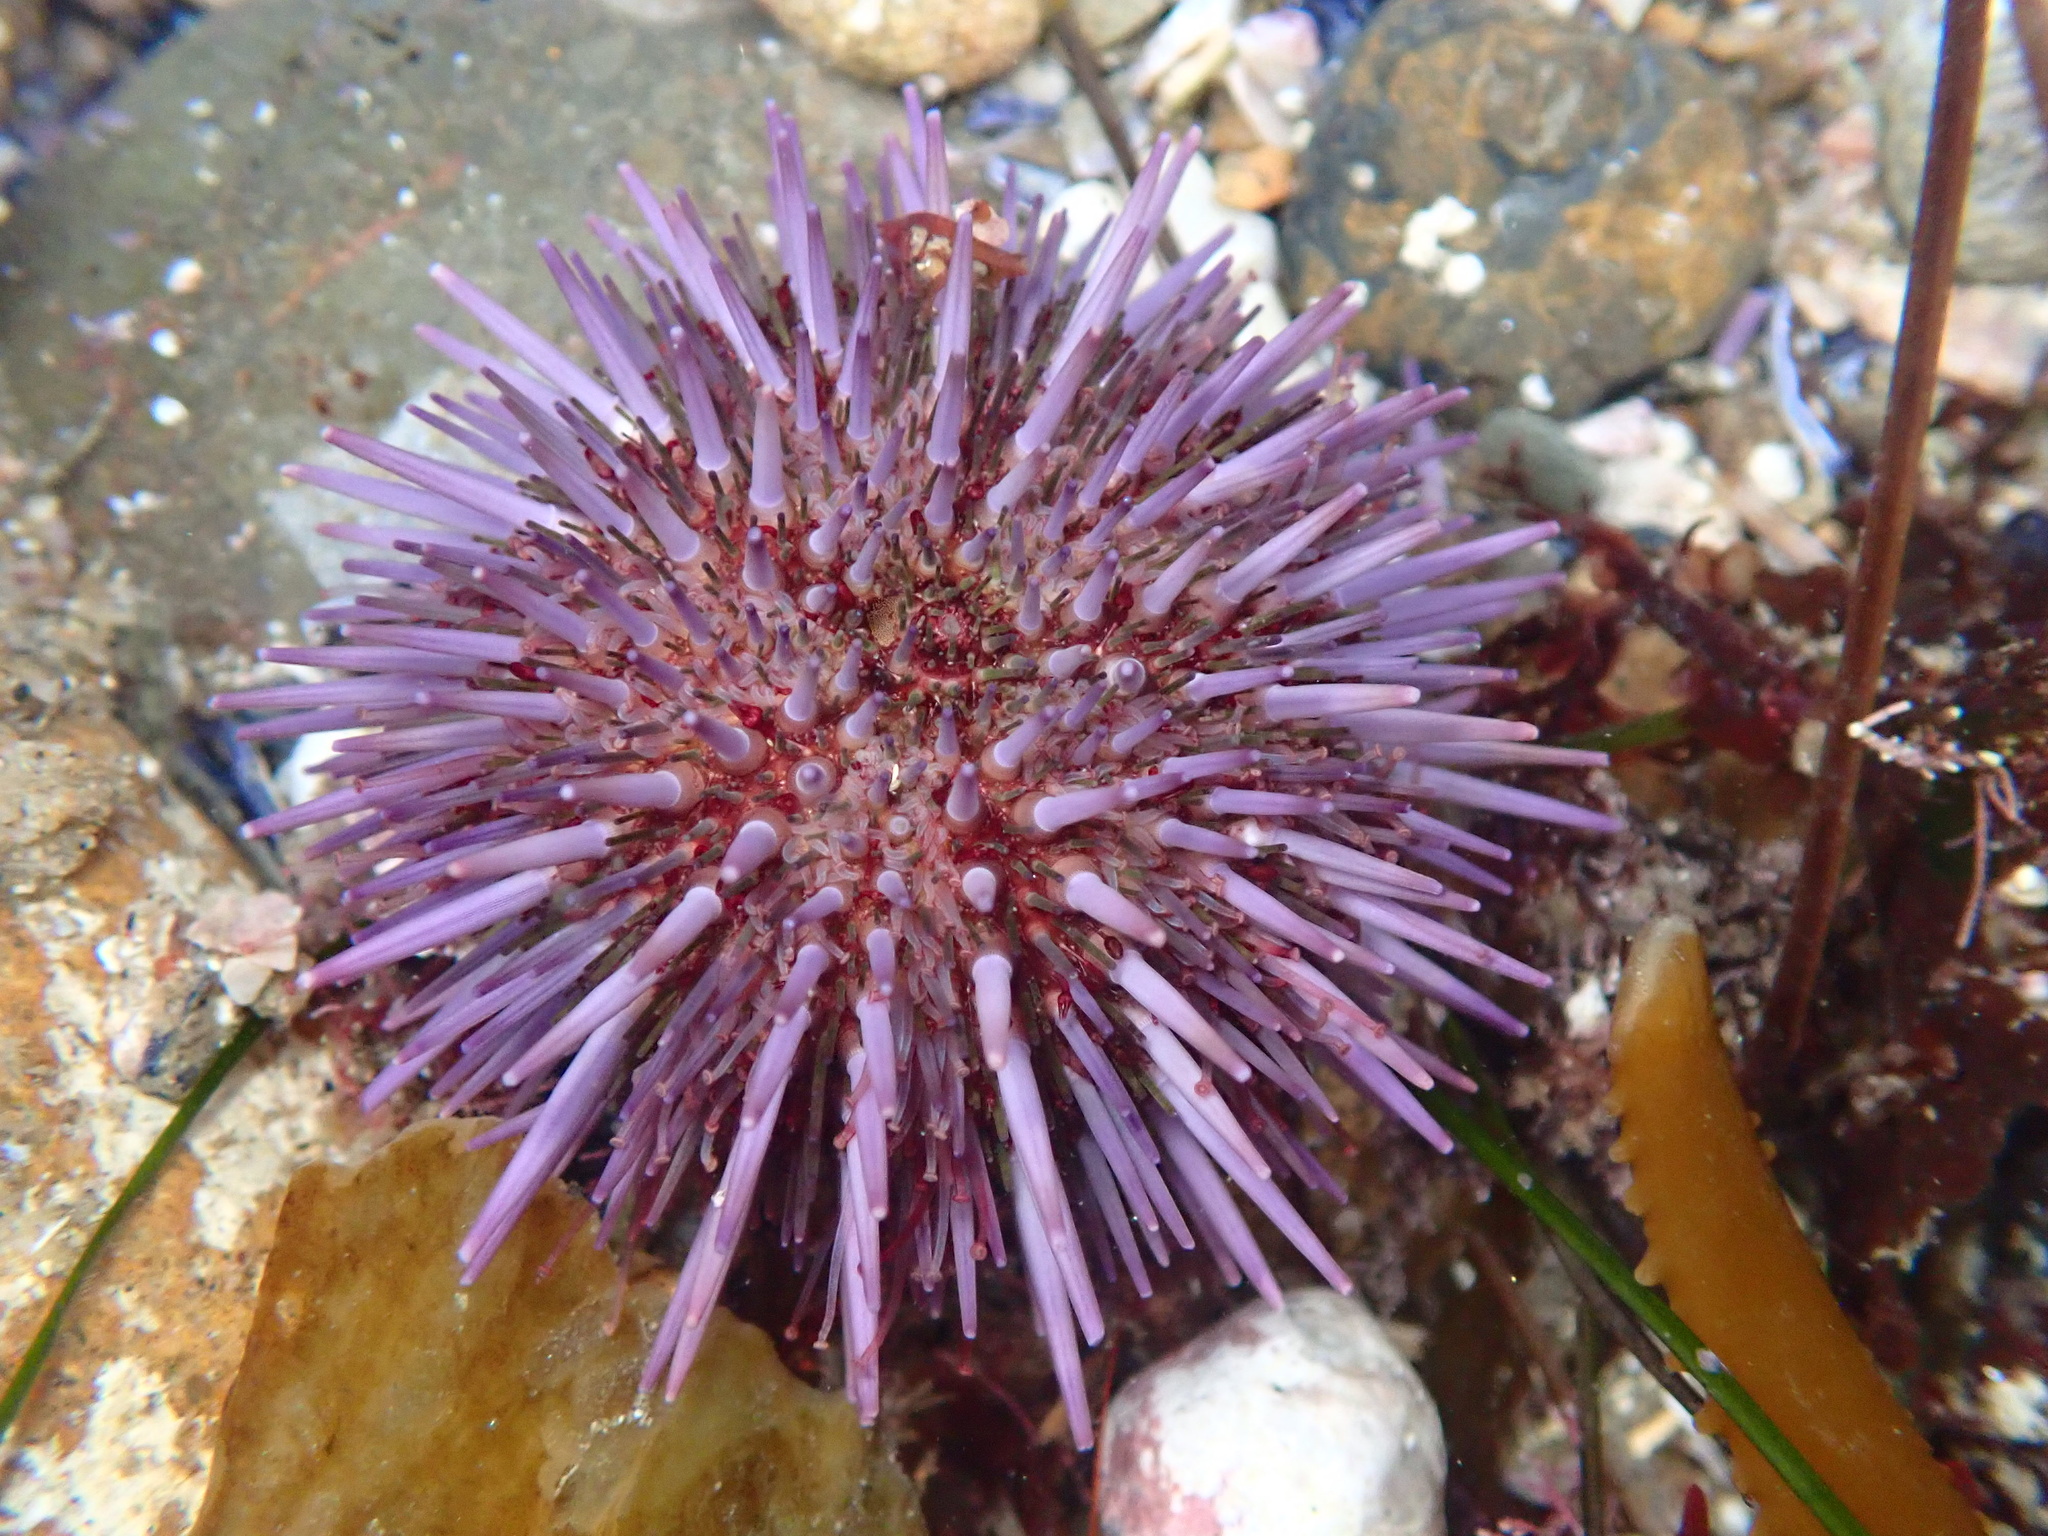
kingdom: Animalia
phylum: Echinodermata
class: Echinoidea
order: Camarodonta
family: Strongylocentrotidae
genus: Strongylocentrotus
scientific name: Strongylocentrotus purpuratus
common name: Purple sea urchin
